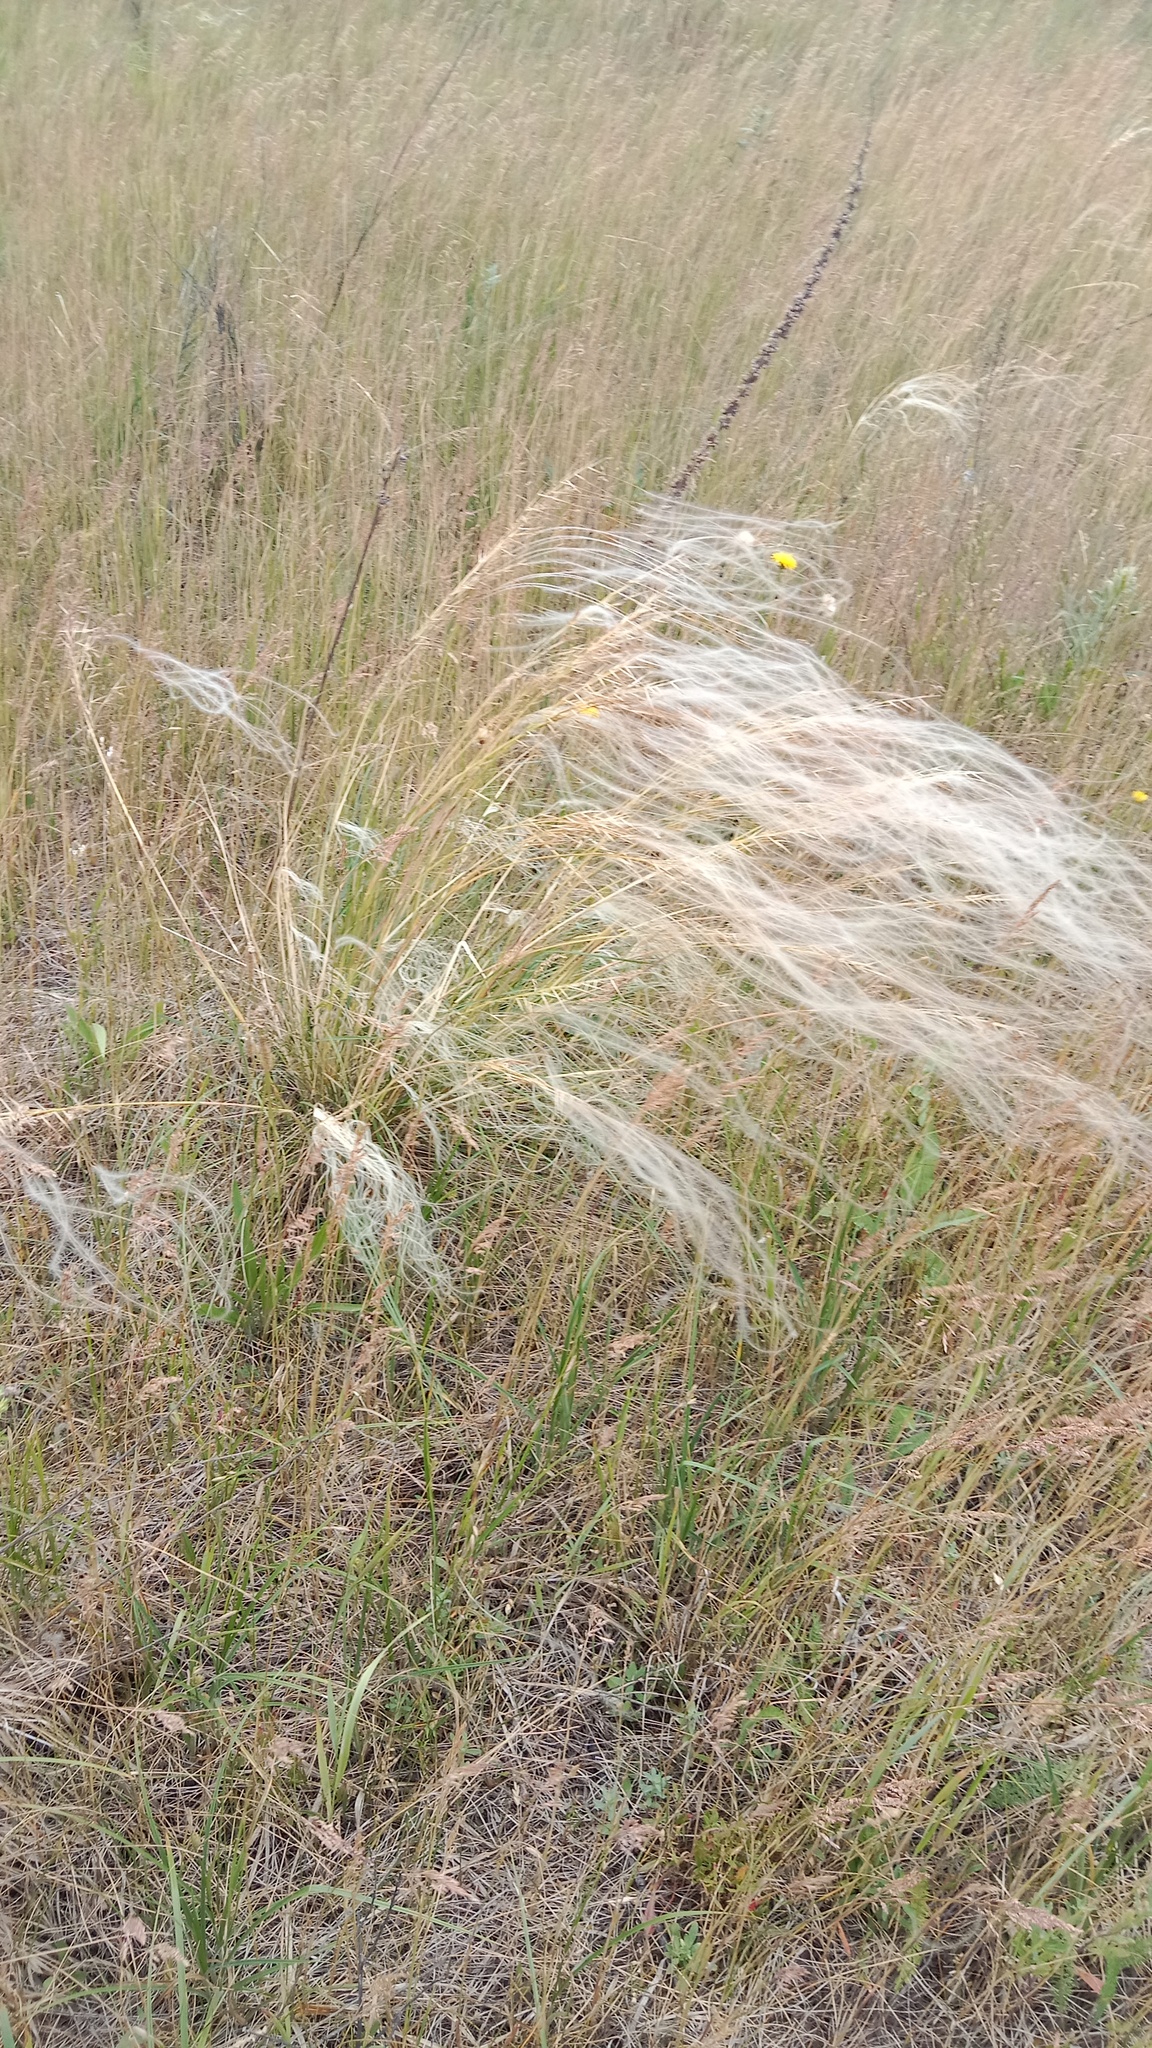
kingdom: Plantae
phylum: Tracheophyta
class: Liliopsida
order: Poales
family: Poaceae
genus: Stipa
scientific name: Stipa borysthenica
